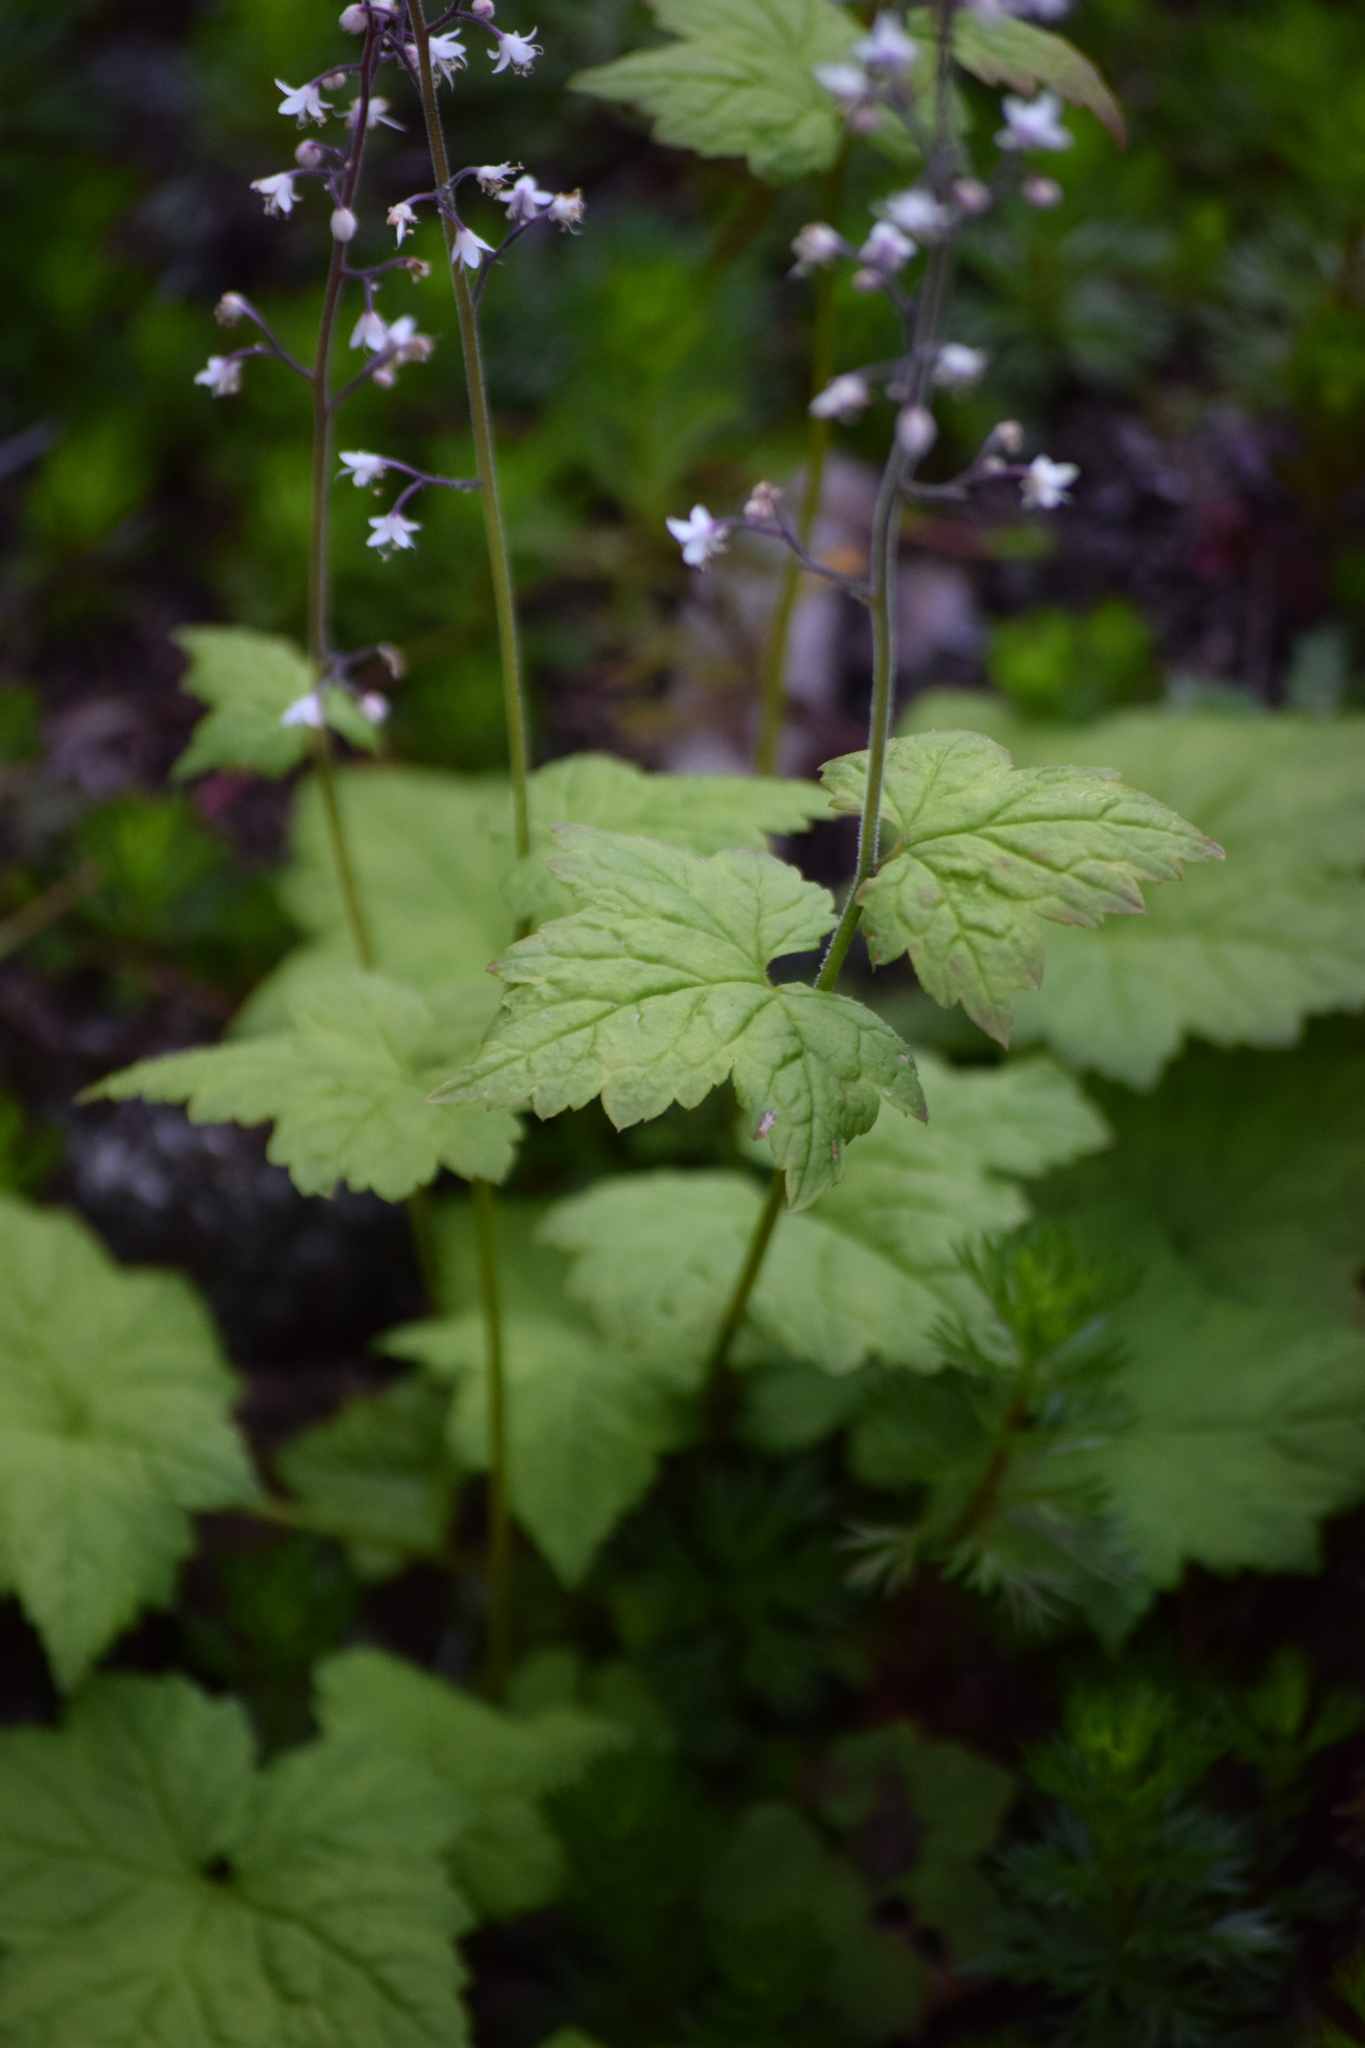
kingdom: Plantae
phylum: Tracheophyta
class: Magnoliopsida
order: Saxifragales
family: Saxifragaceae
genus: Tiarella
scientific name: Tiarella trifoliata
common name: Sugar-scoop
